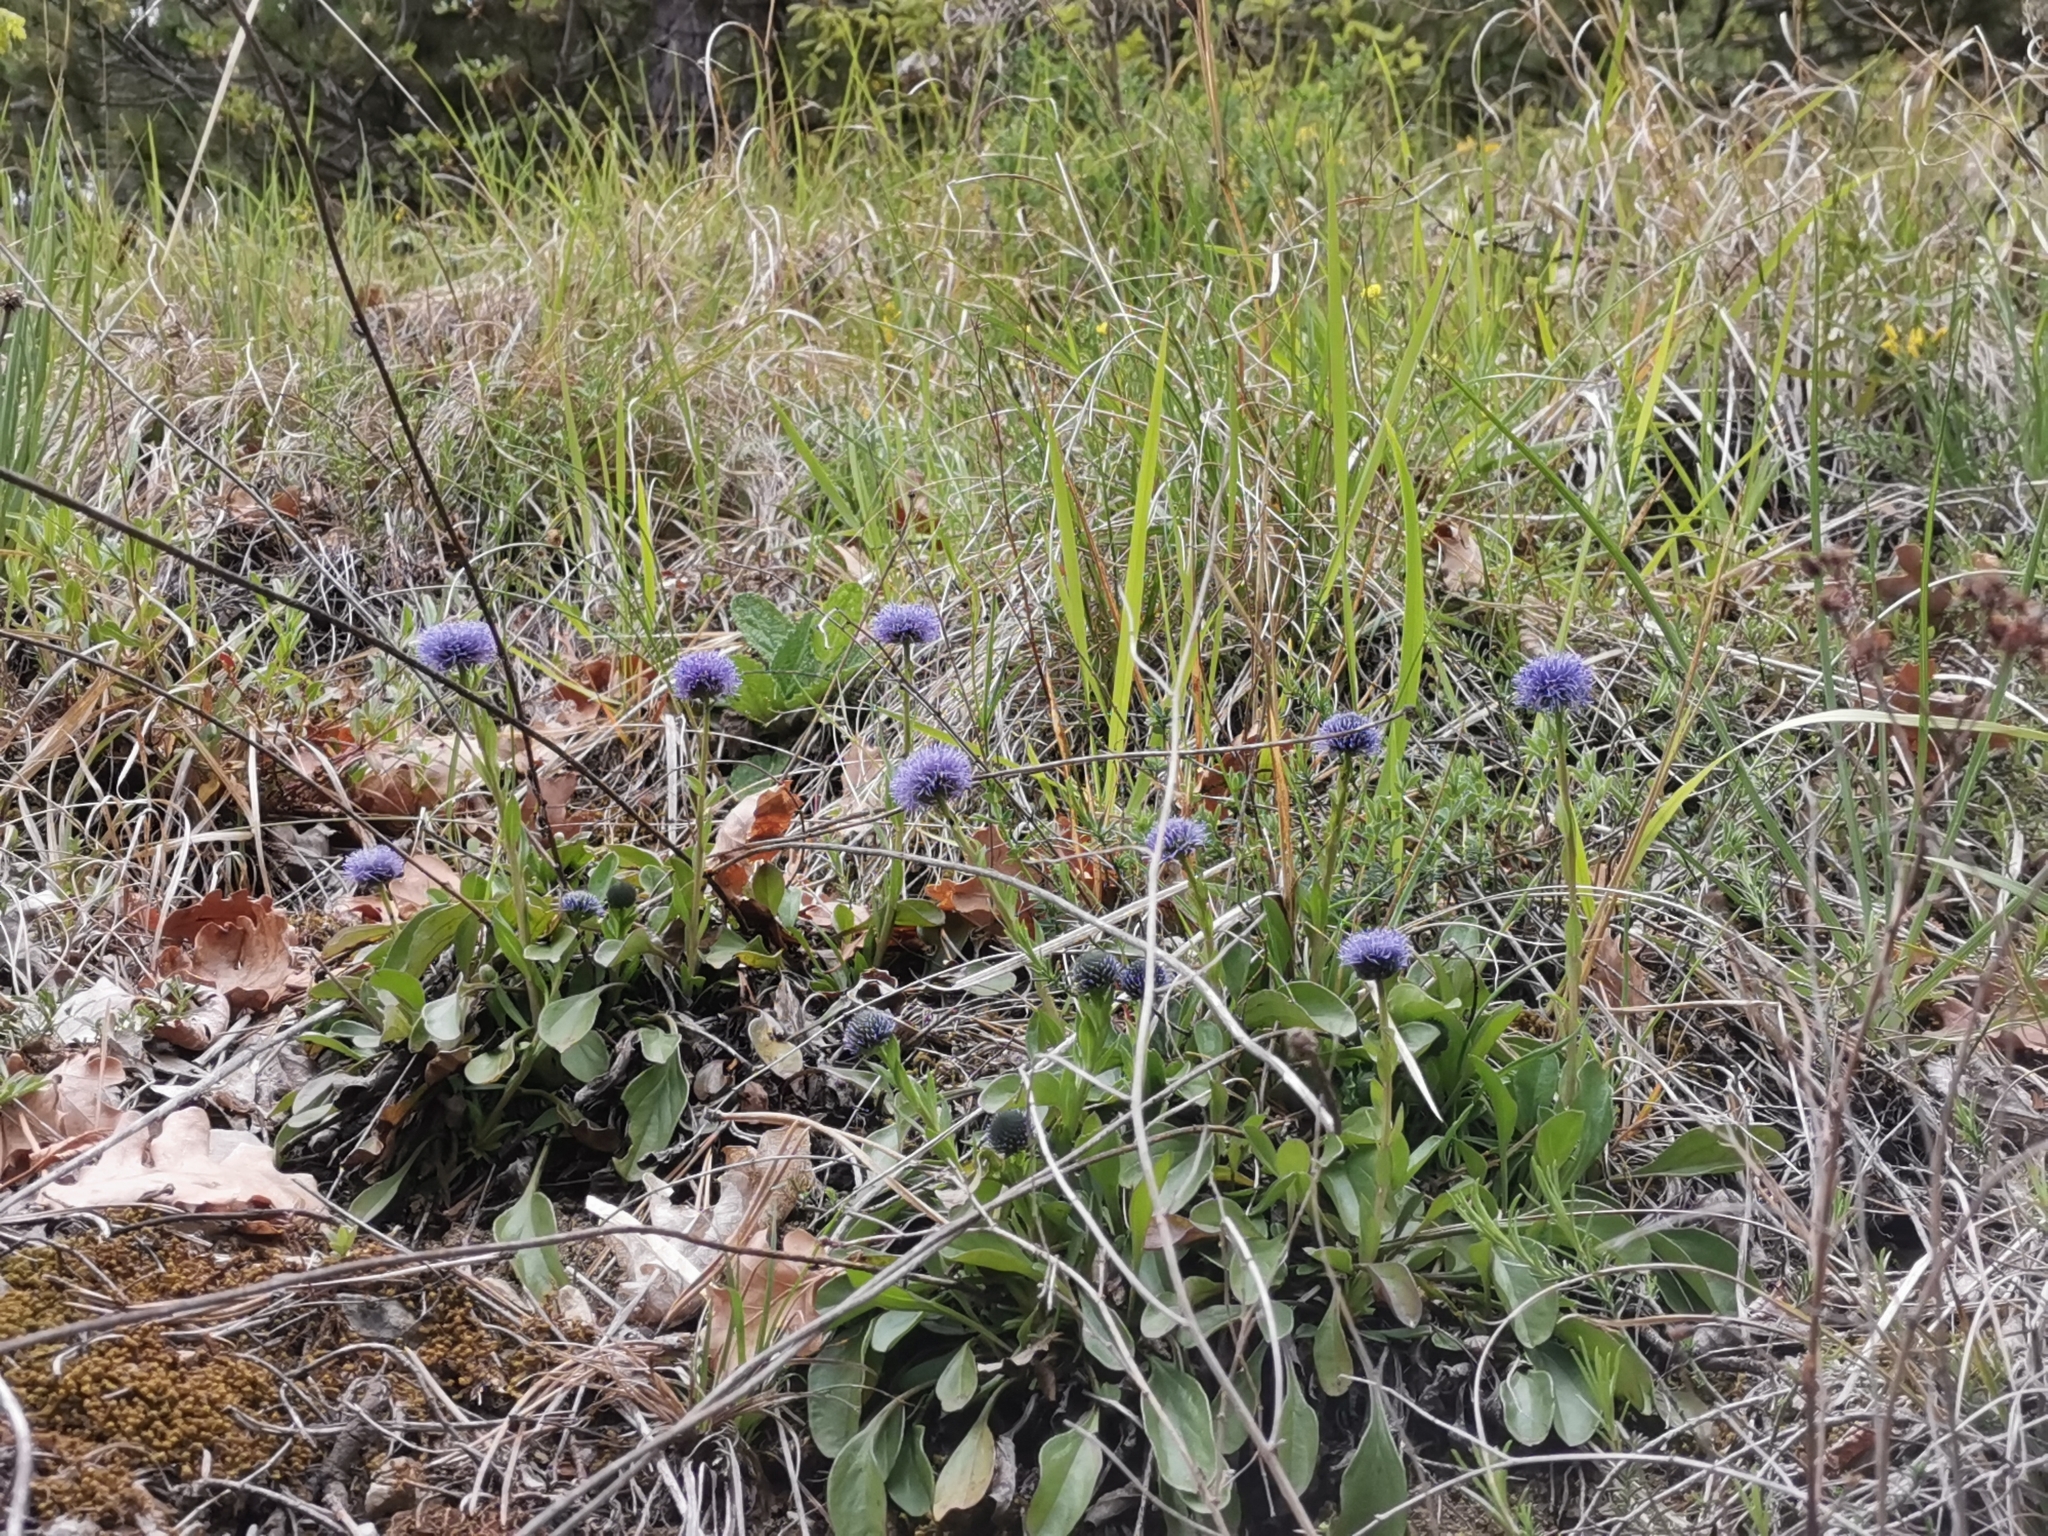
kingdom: Plantae
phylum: Tracheophyta
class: Magnoliopsida
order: Lamiales
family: Plantaginaceae
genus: Globularia
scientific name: Globularia bisnagarica
